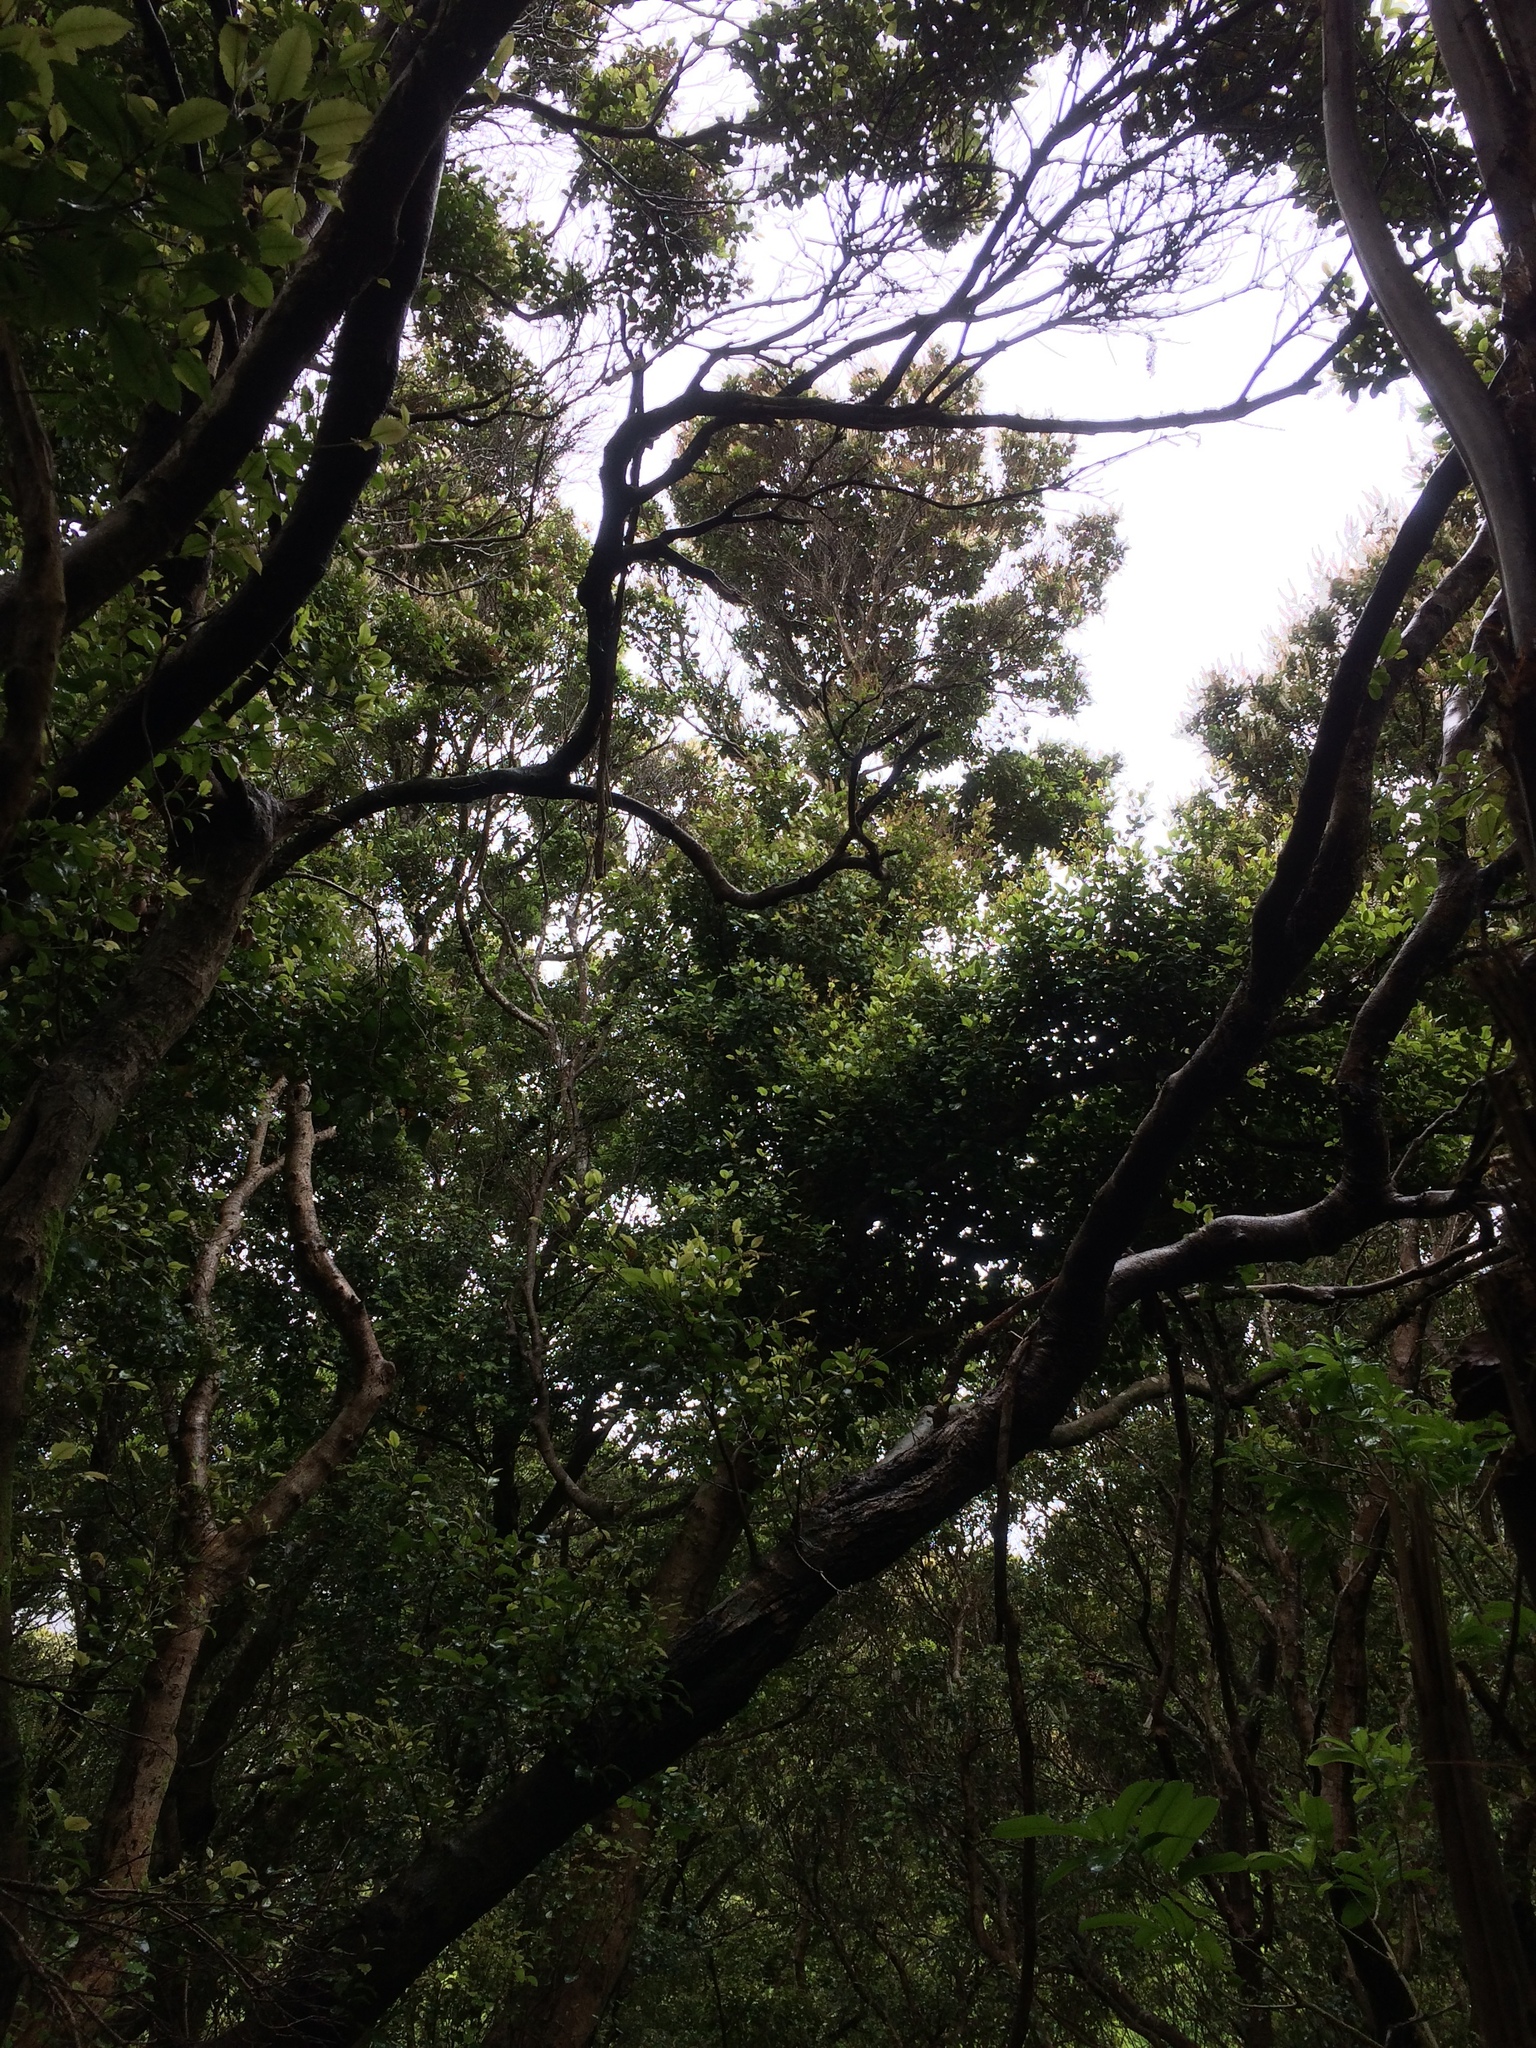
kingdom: Plantae
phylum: Tracheophyta
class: Magnoliopsida
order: Oxalidales
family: Cunoniaceae
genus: Pterophylla
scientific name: Pterophylla racemosa
